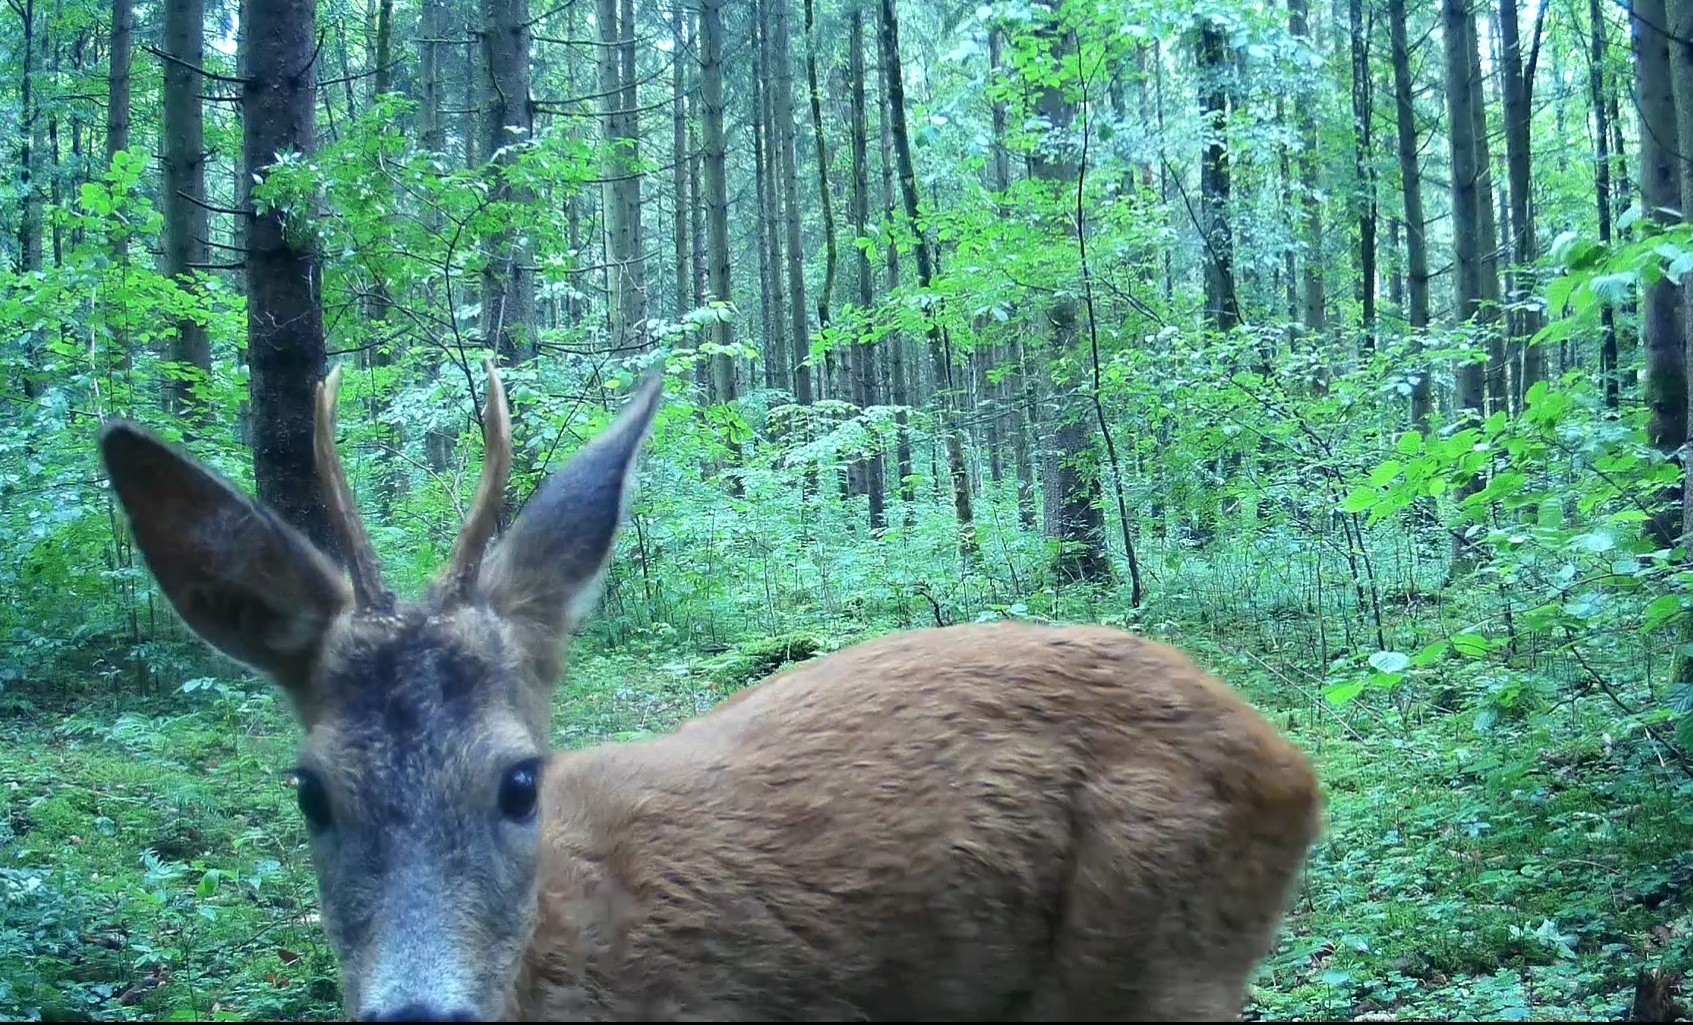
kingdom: Animalia
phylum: Chordata
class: Mammalia
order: Artiodactyla
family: Cervidae
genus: Capreolus
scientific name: Capreolus capreolus
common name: Western roe deer
